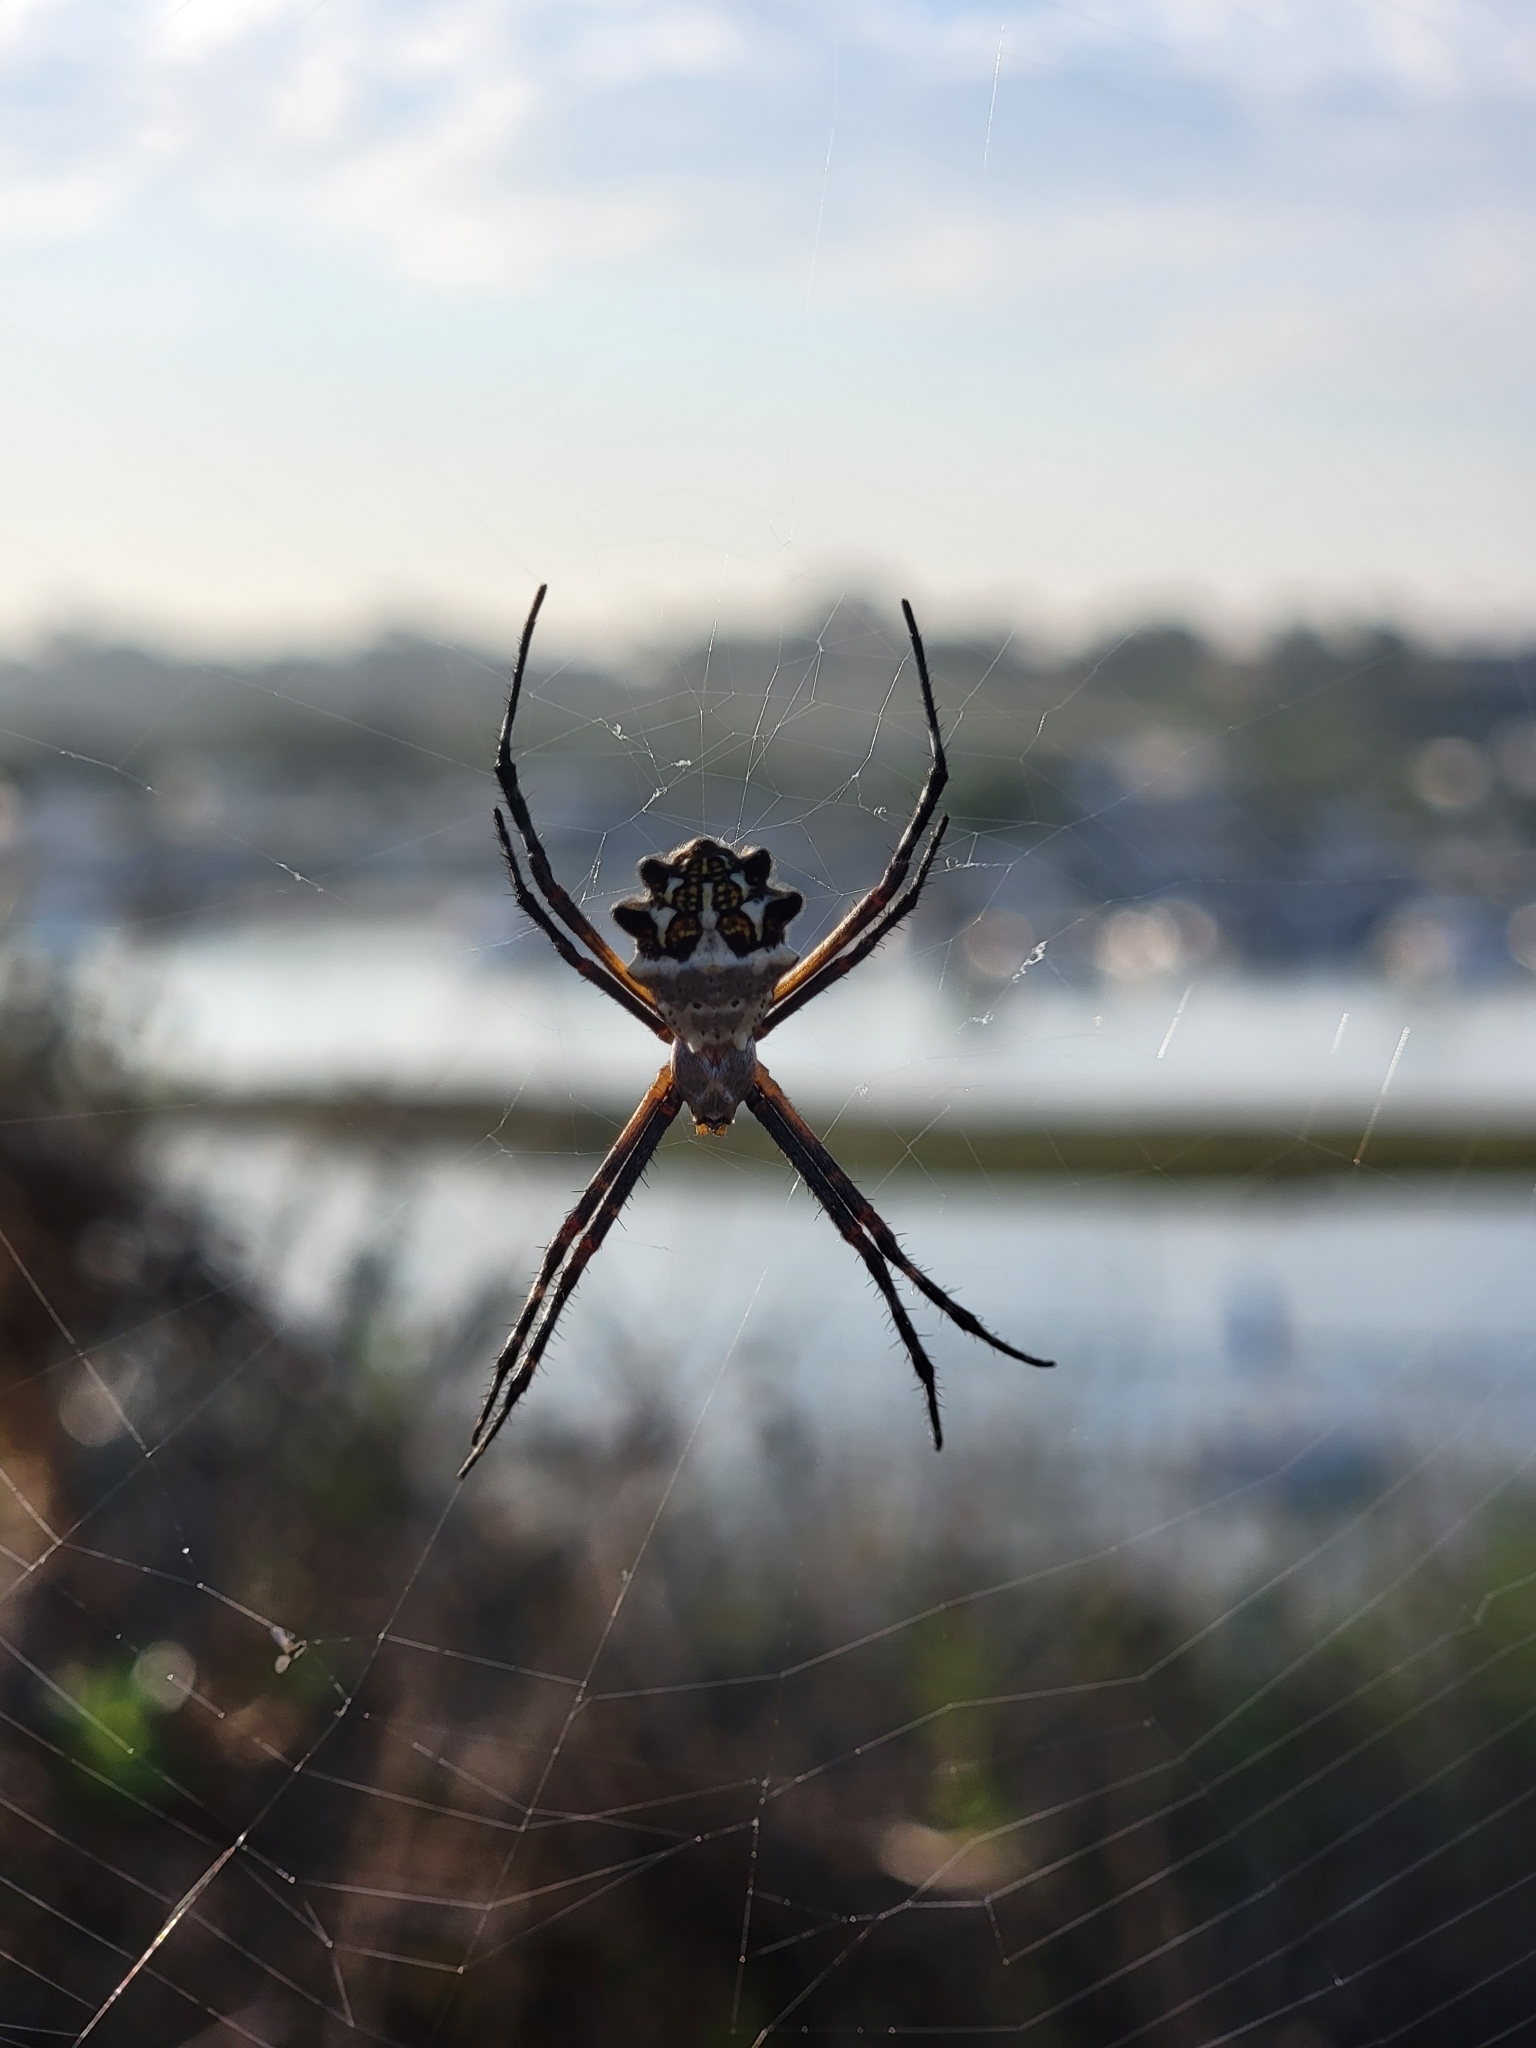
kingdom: Animalia
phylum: Arthropoda
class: Arachnida
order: Araneae
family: Araneidae
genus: Argiope
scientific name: Argiope argentata
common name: Orb weavers
